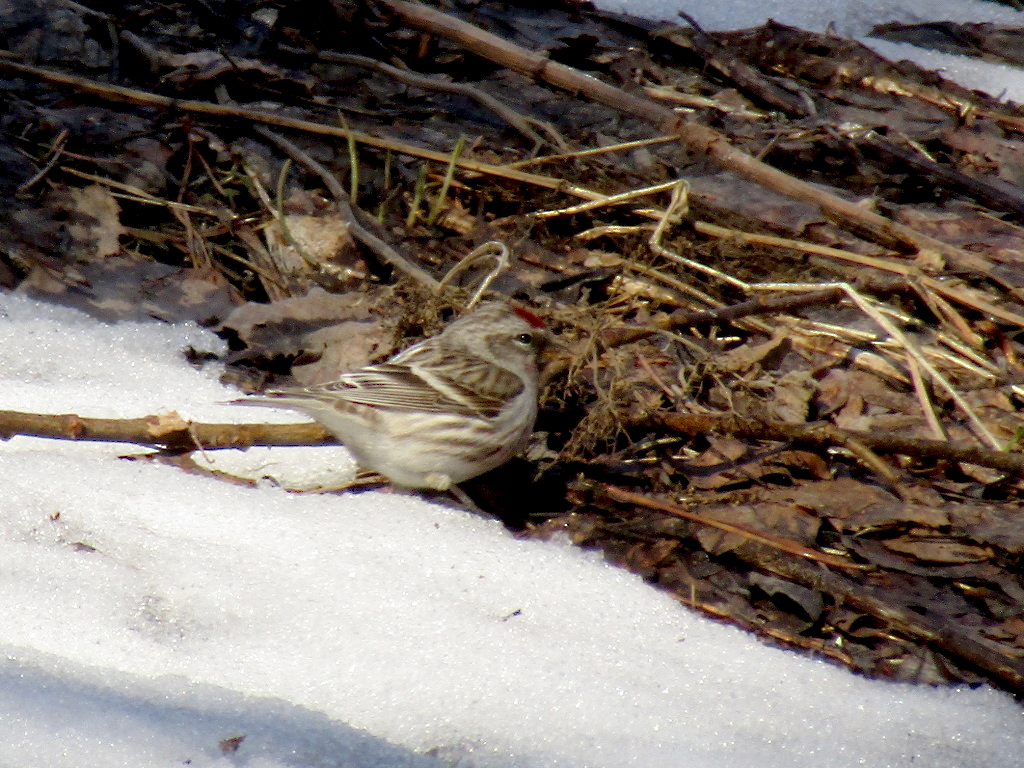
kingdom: Animalia
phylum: Chordata
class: Aves
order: Passeriformes
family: Fringillidae
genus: Acanthis
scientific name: Acanthis flammea
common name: Common redpoll
